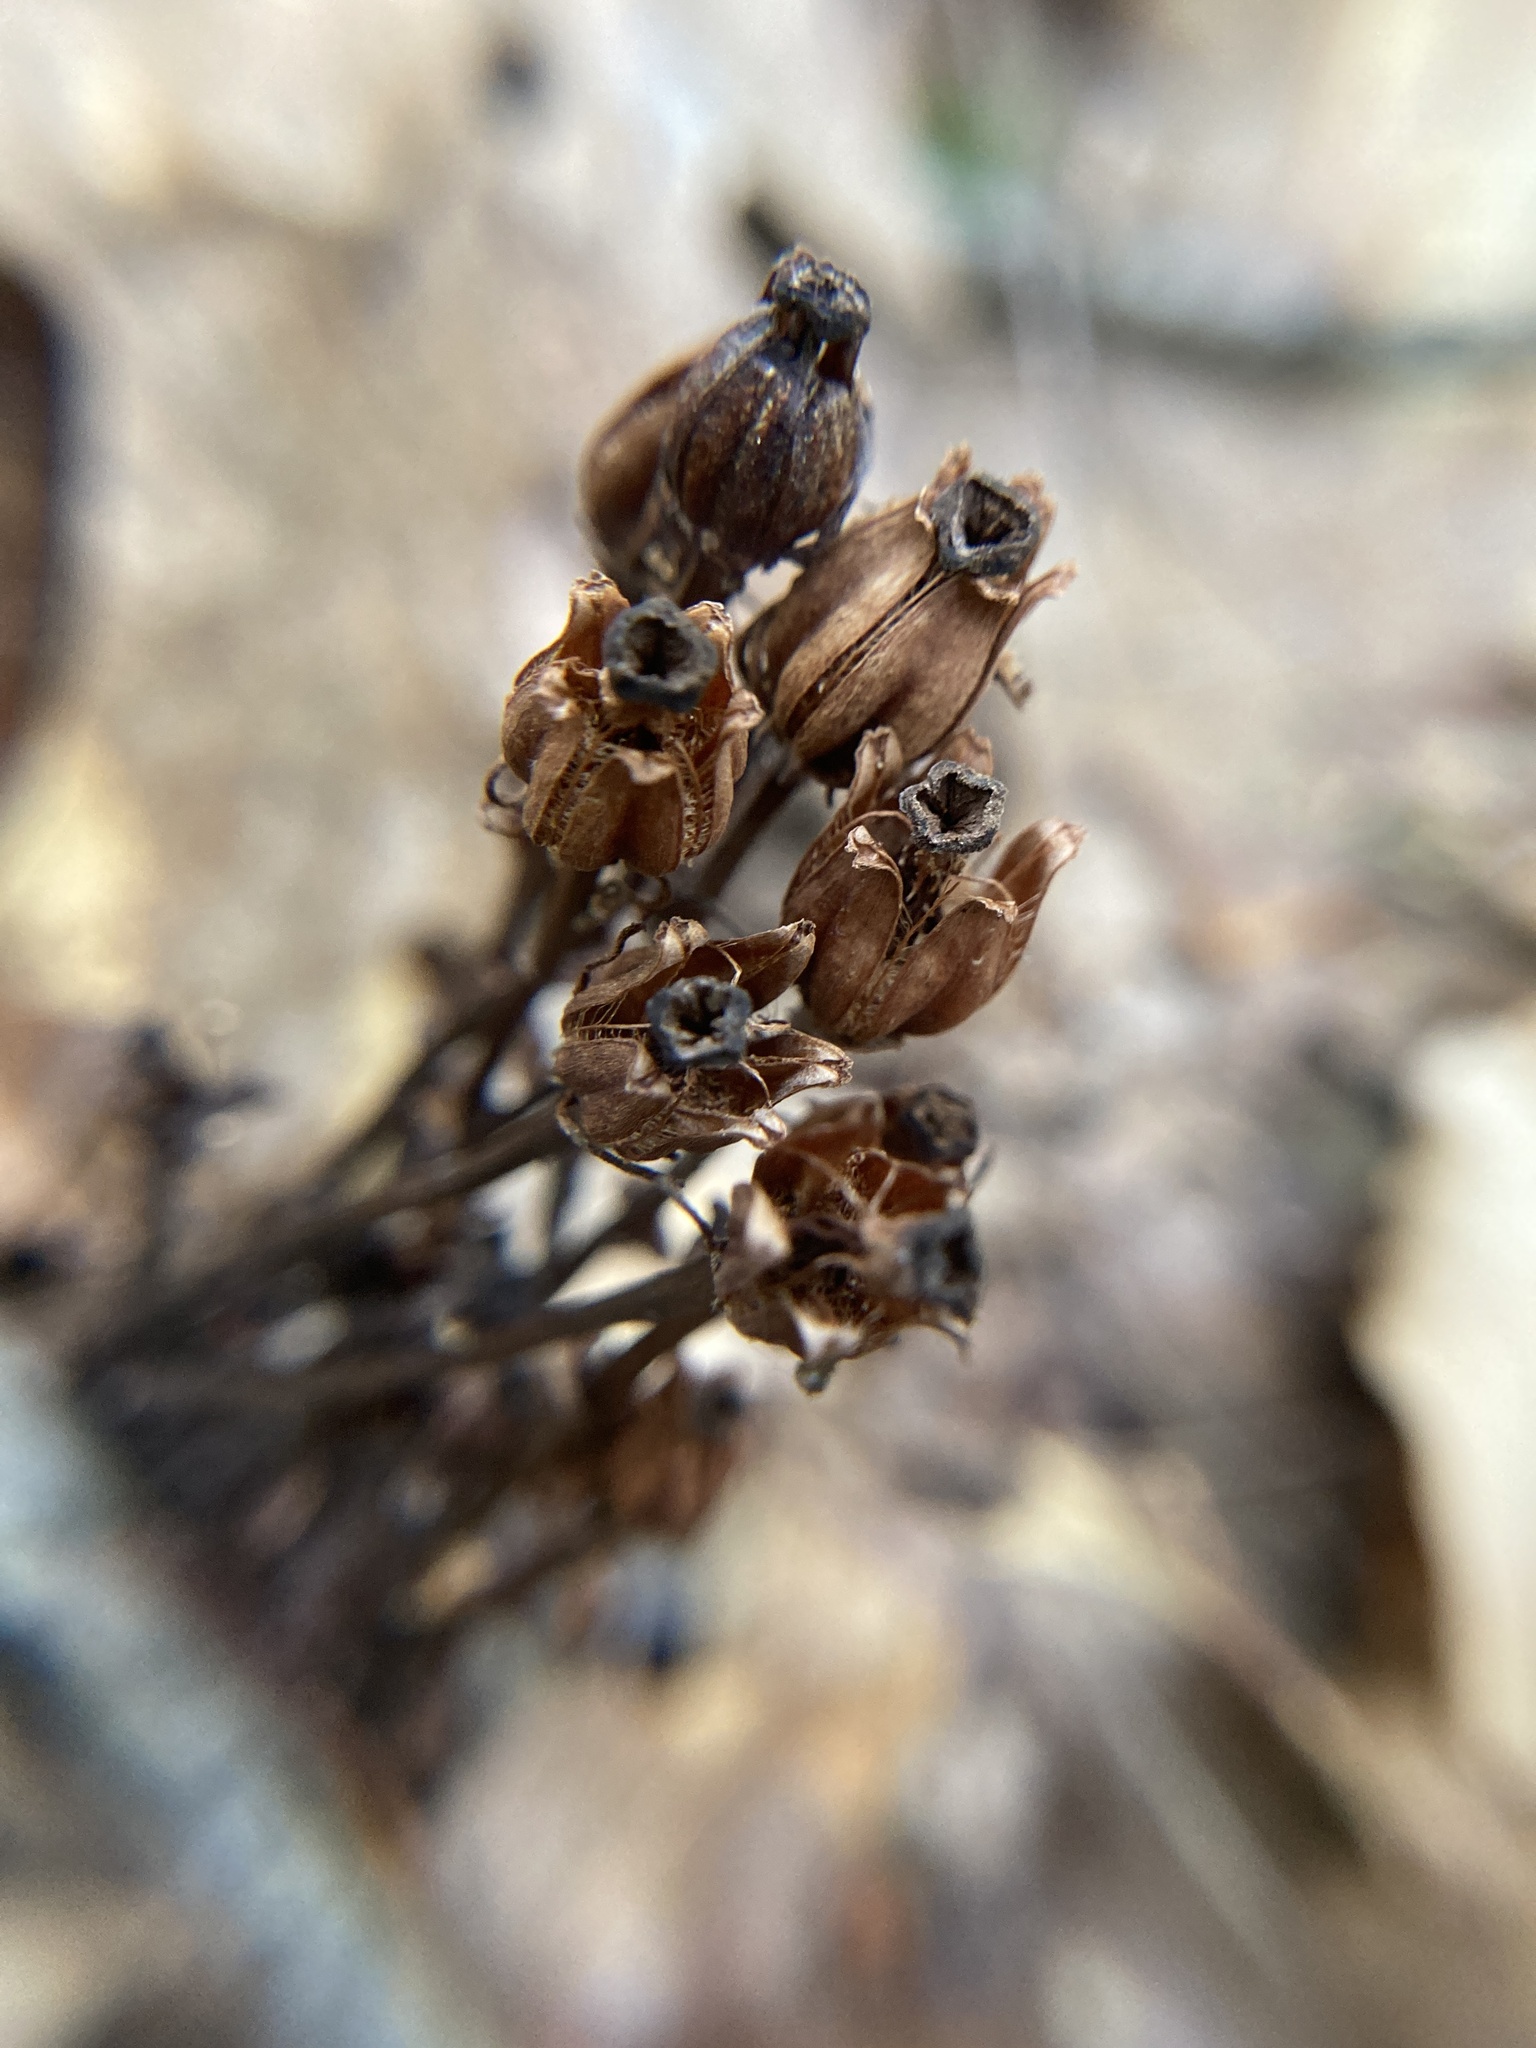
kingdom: Plantae
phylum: Tracheophyta
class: Magnoliopsida
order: Ericales
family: Ericaceae
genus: Monotropa
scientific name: Monotropa uniflora
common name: Convulsion root
